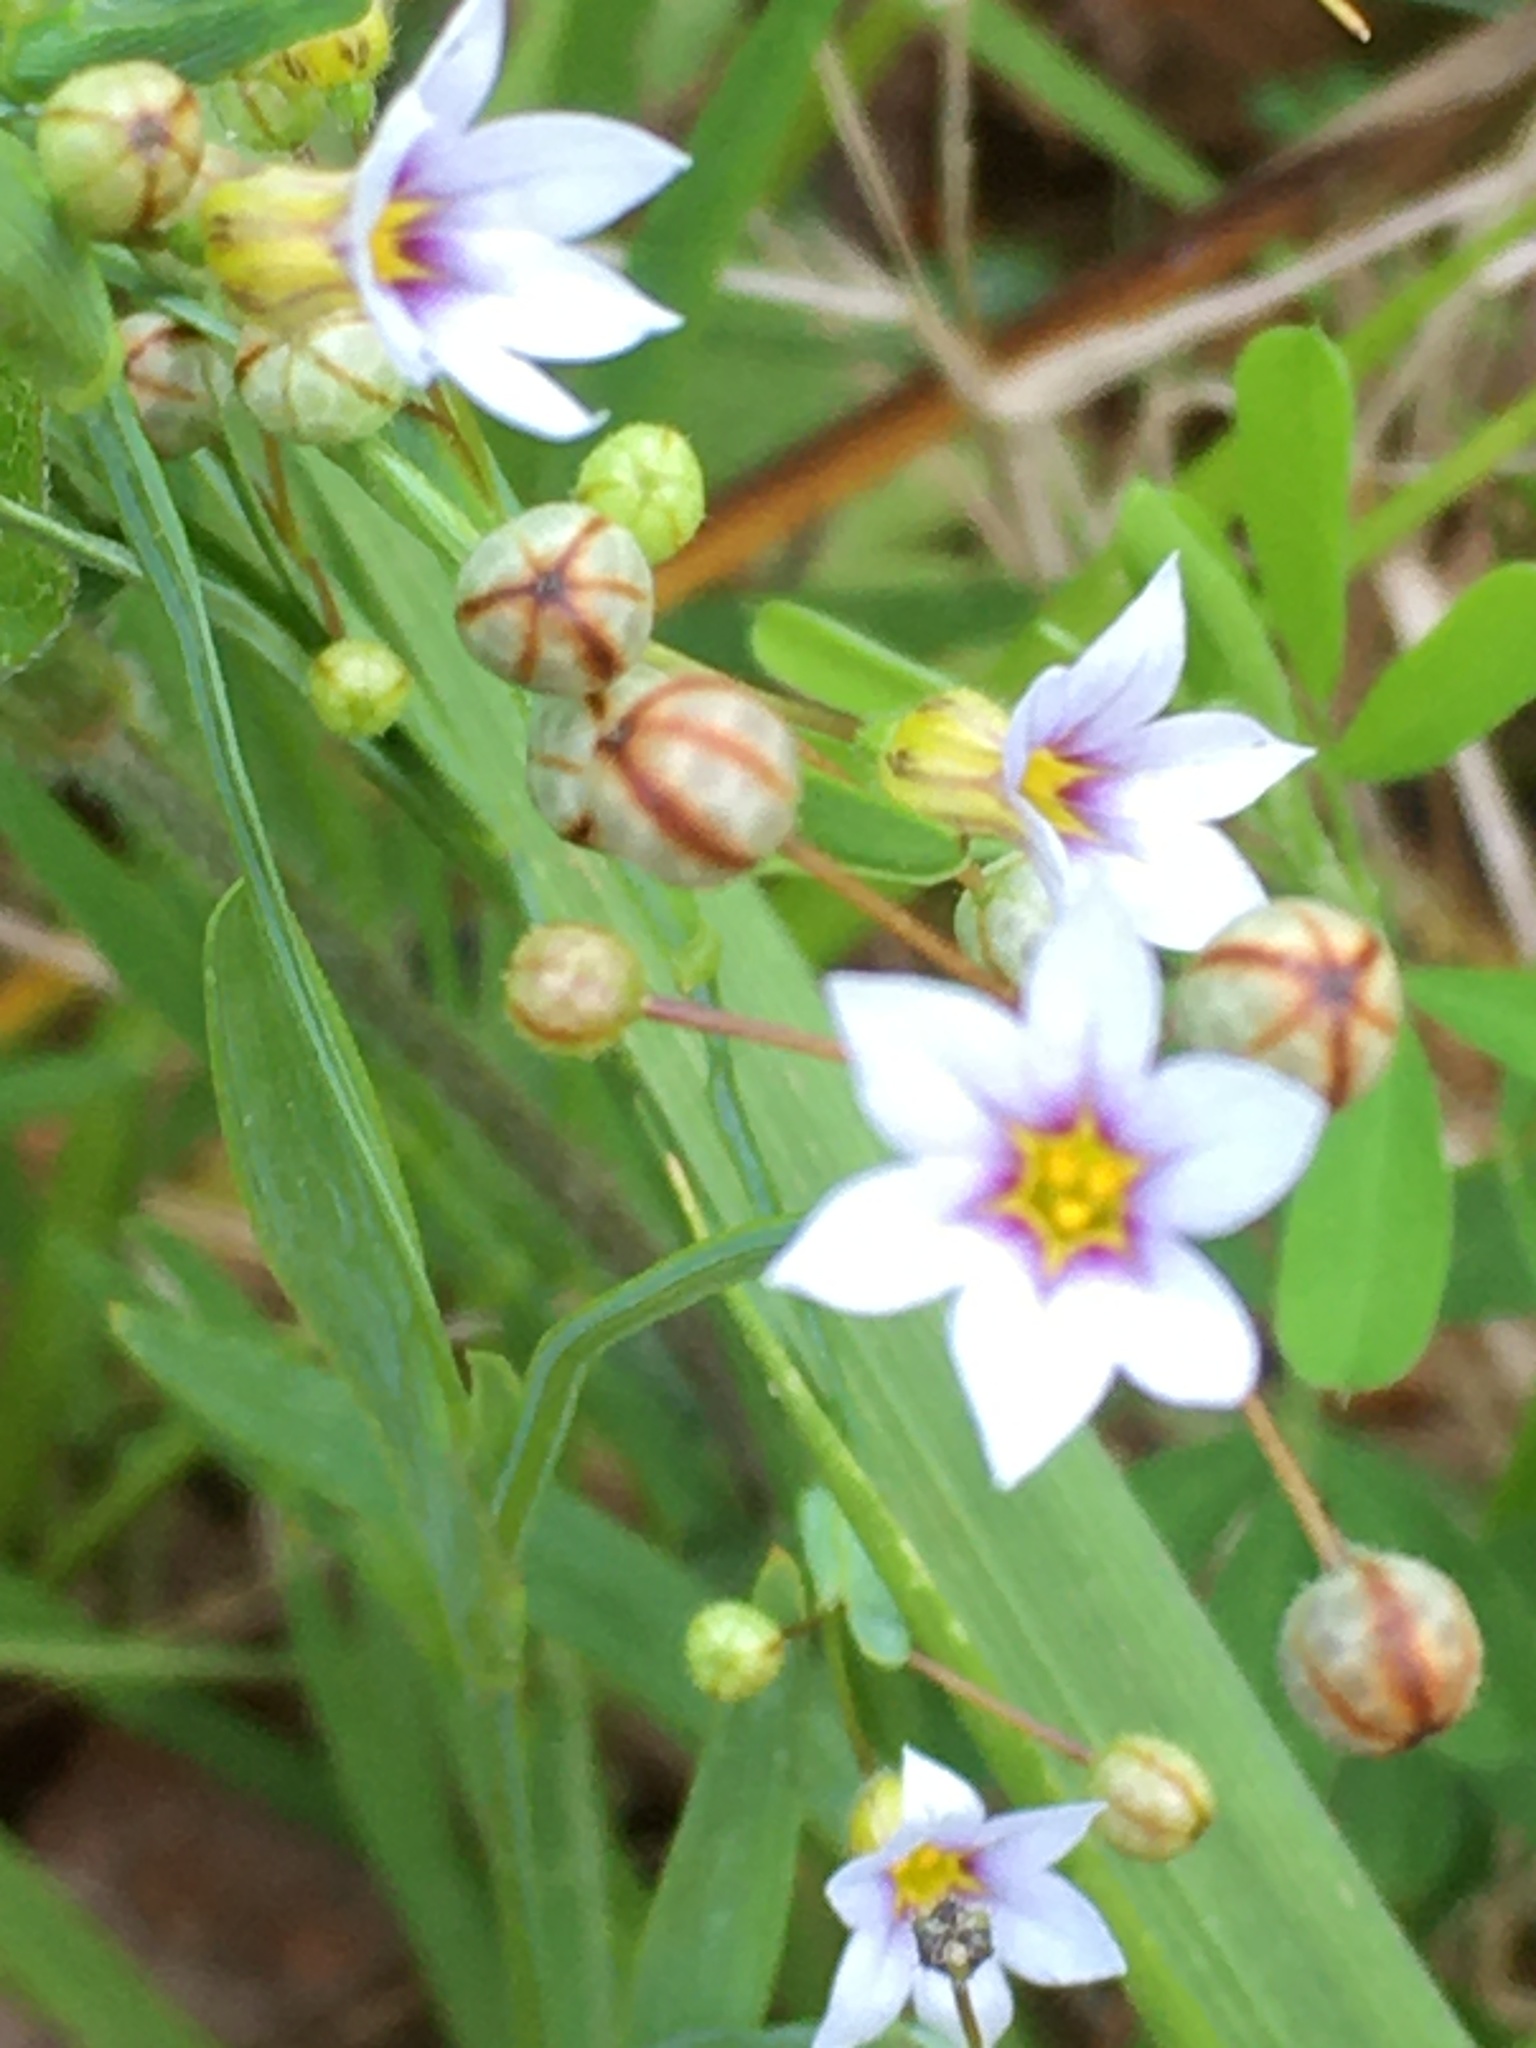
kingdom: Plantae
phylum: Tracheophyta
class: Liliopsida
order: Asparagales
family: Iridaceae
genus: Sisyrinchium
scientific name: Sisyrinchium micranthum
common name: Bermuda pigroot
